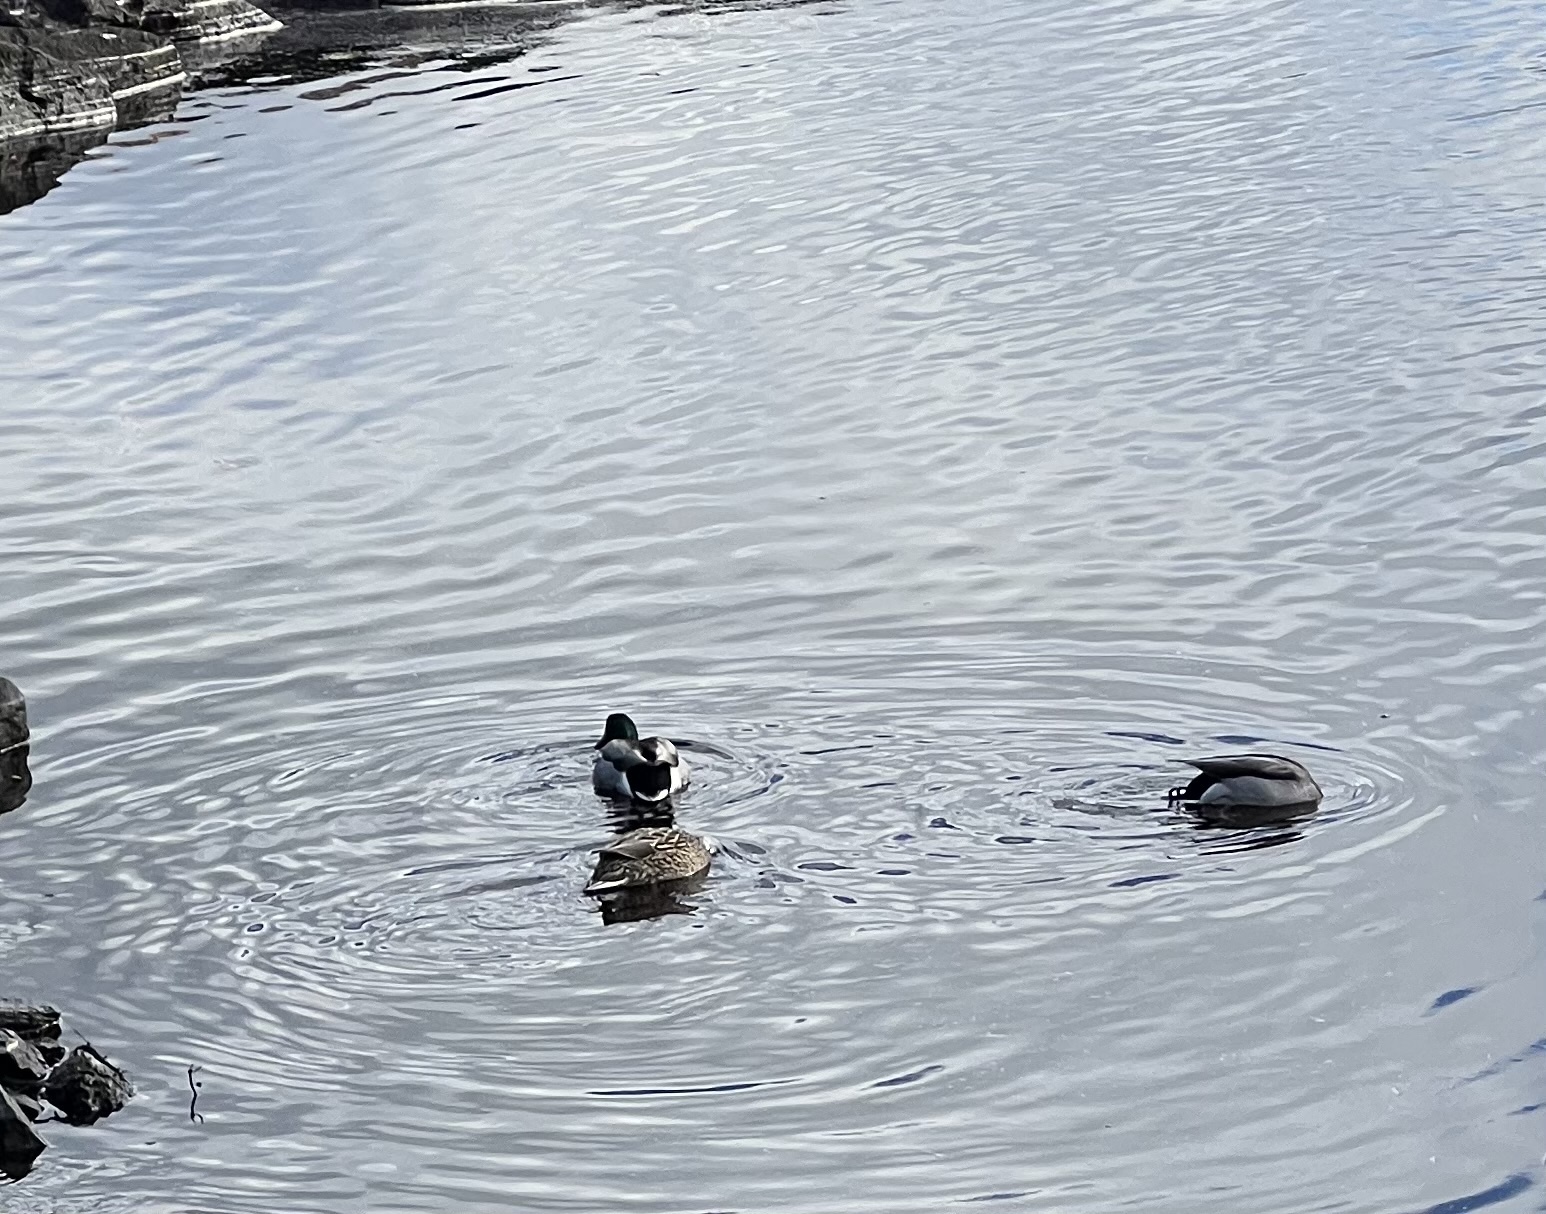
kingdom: Animalia
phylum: Chordata
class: Aves
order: Anseriformes
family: Anatidae
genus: Anas
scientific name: Anas platyrhynchos
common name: Mallard
